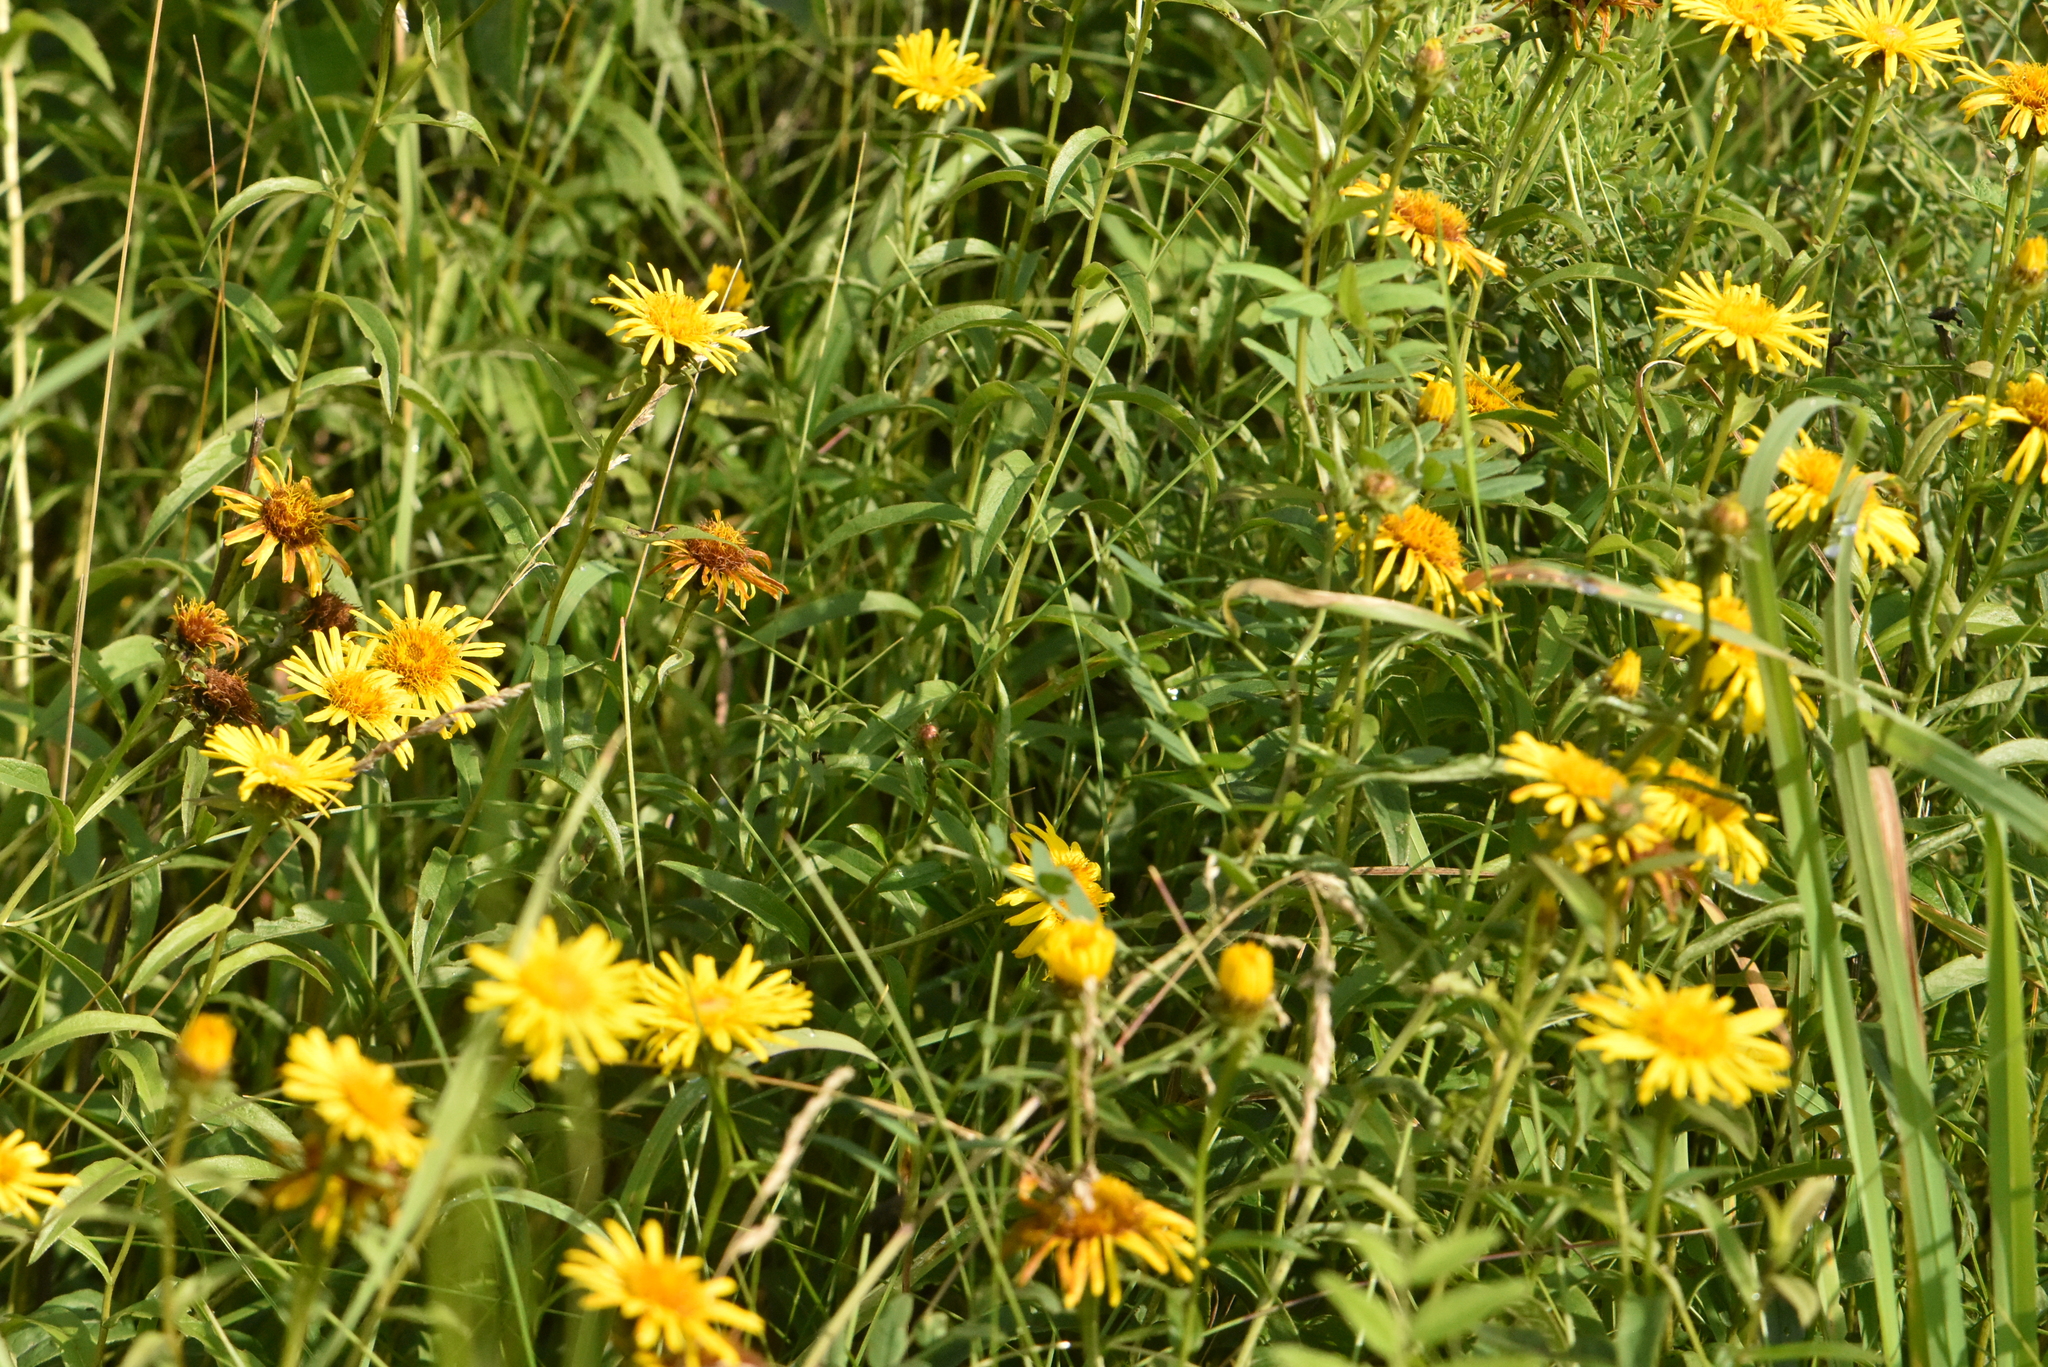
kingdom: Plantae
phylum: Tracheophyta
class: Magnoliopsida
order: Asterales
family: Asteraceae
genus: Pentanema
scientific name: Pentanema salicinum
